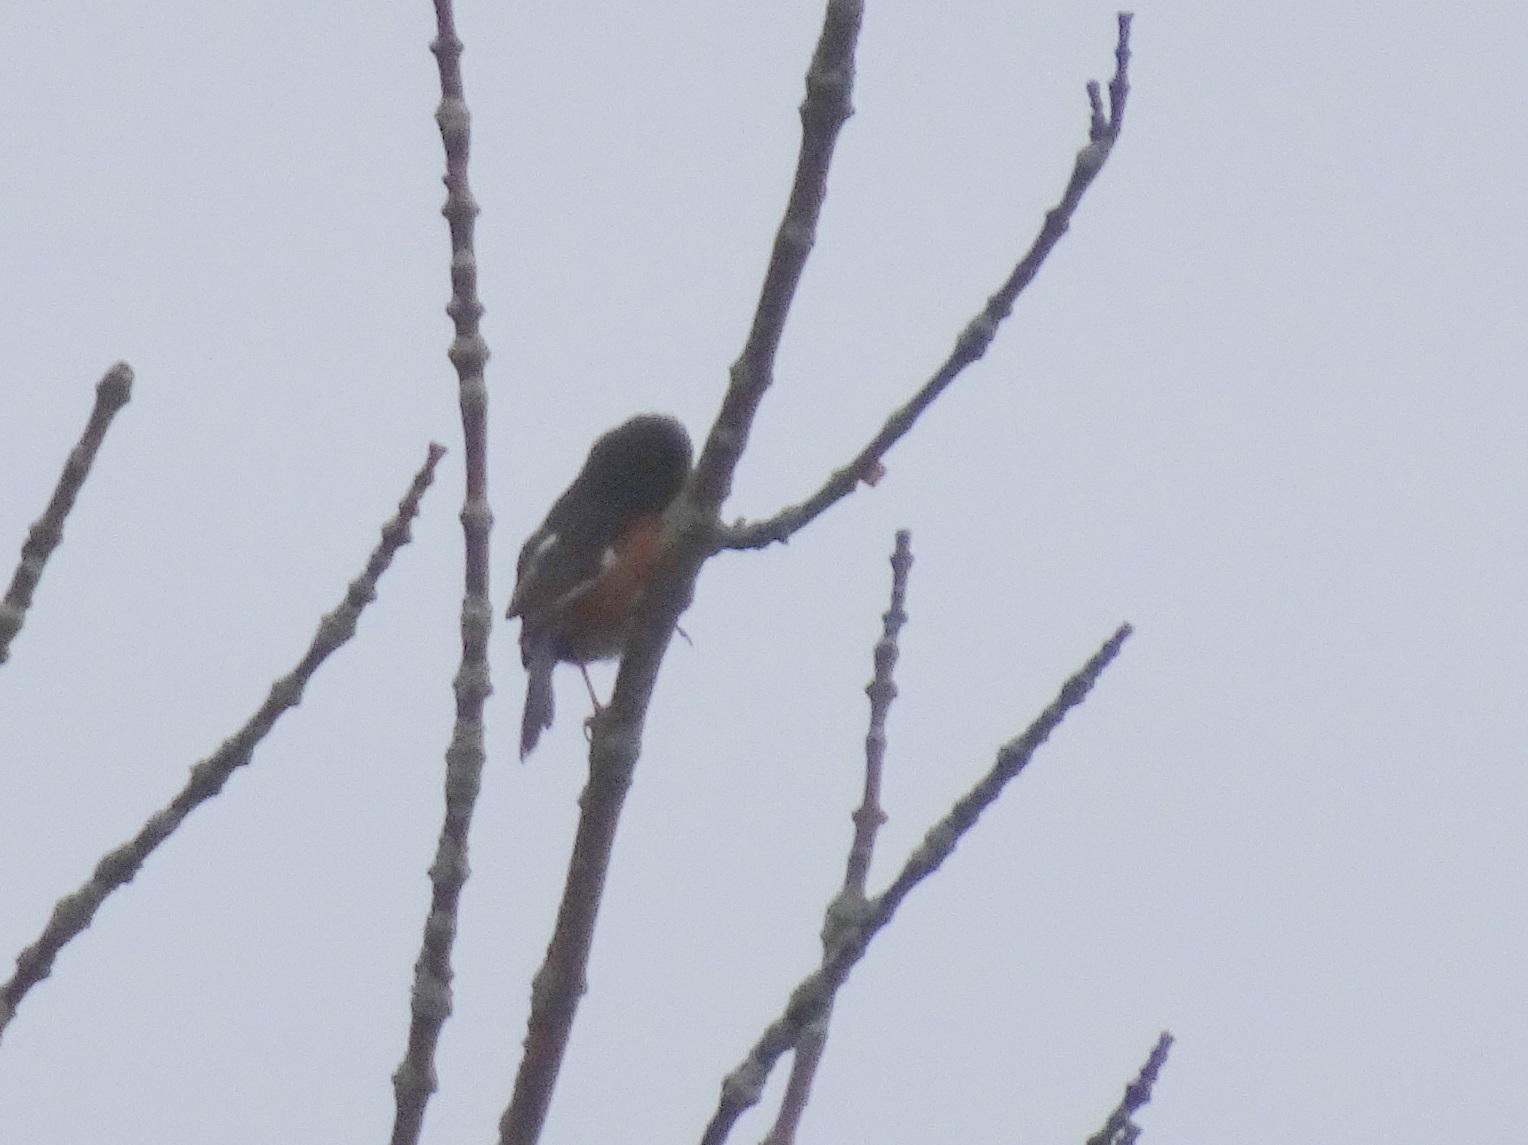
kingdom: Animalia
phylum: Chordata
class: Aves
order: Passeriformes
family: Passerellidae
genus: Pipilo
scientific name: Pipilo erythrophthalmus
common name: Eastern towhee
